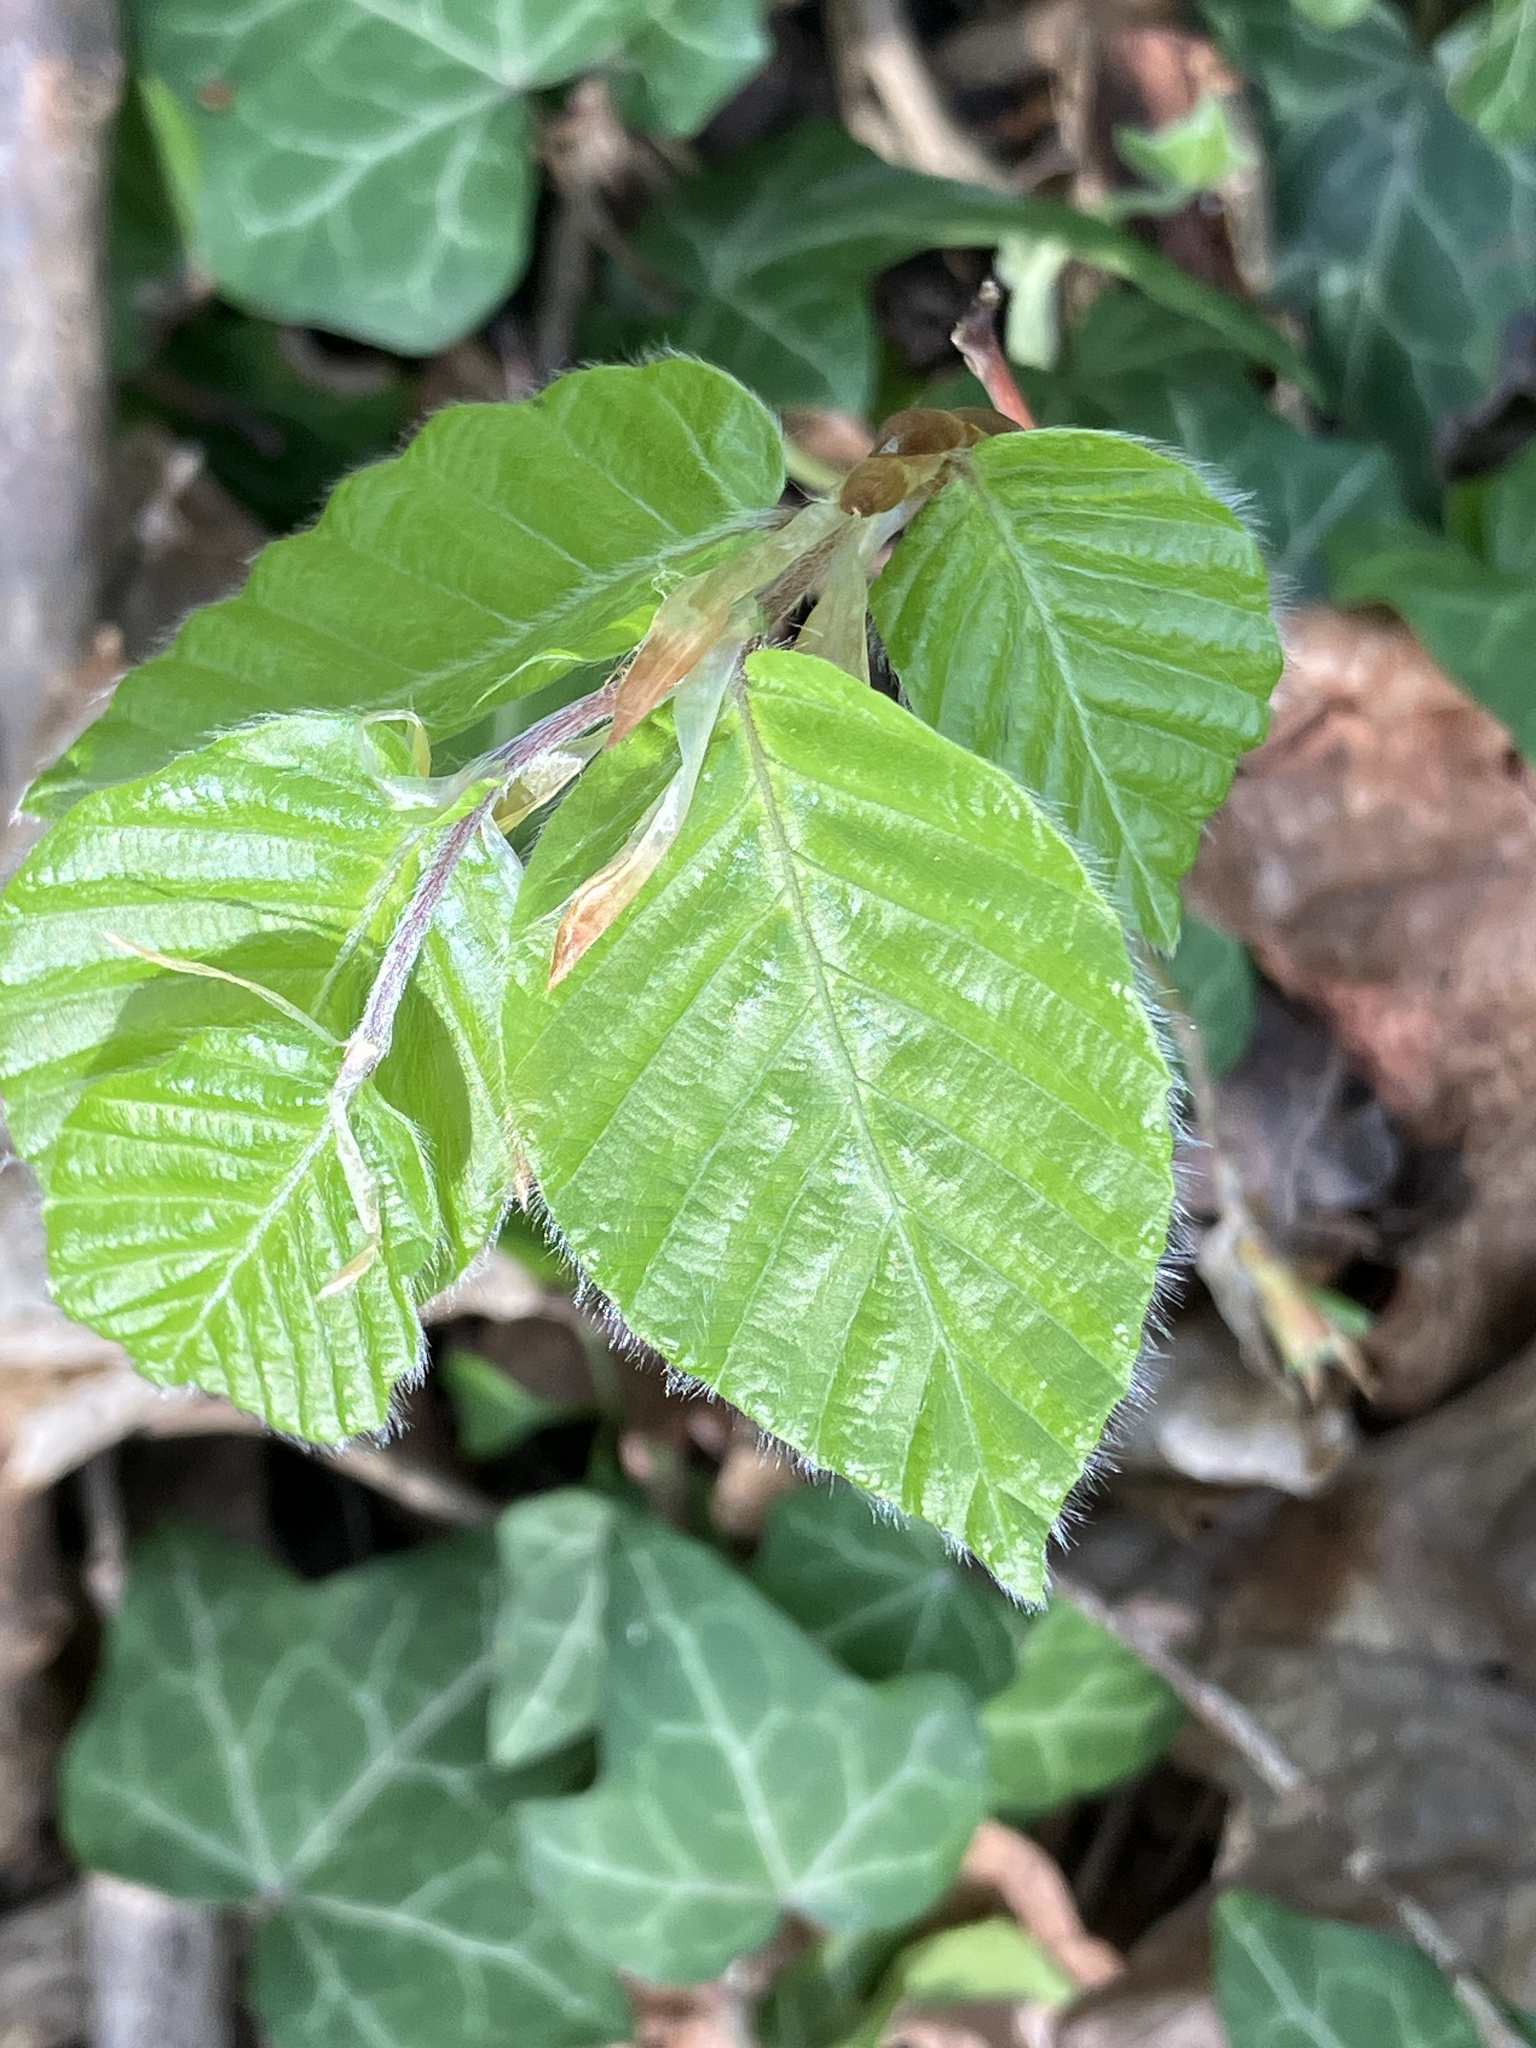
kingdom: Plantae
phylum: Tracheophyta
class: Magnoliopsida
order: Fagales
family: Fagaceae
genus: Fagus
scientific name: Fagus sylvatica
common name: Beech
